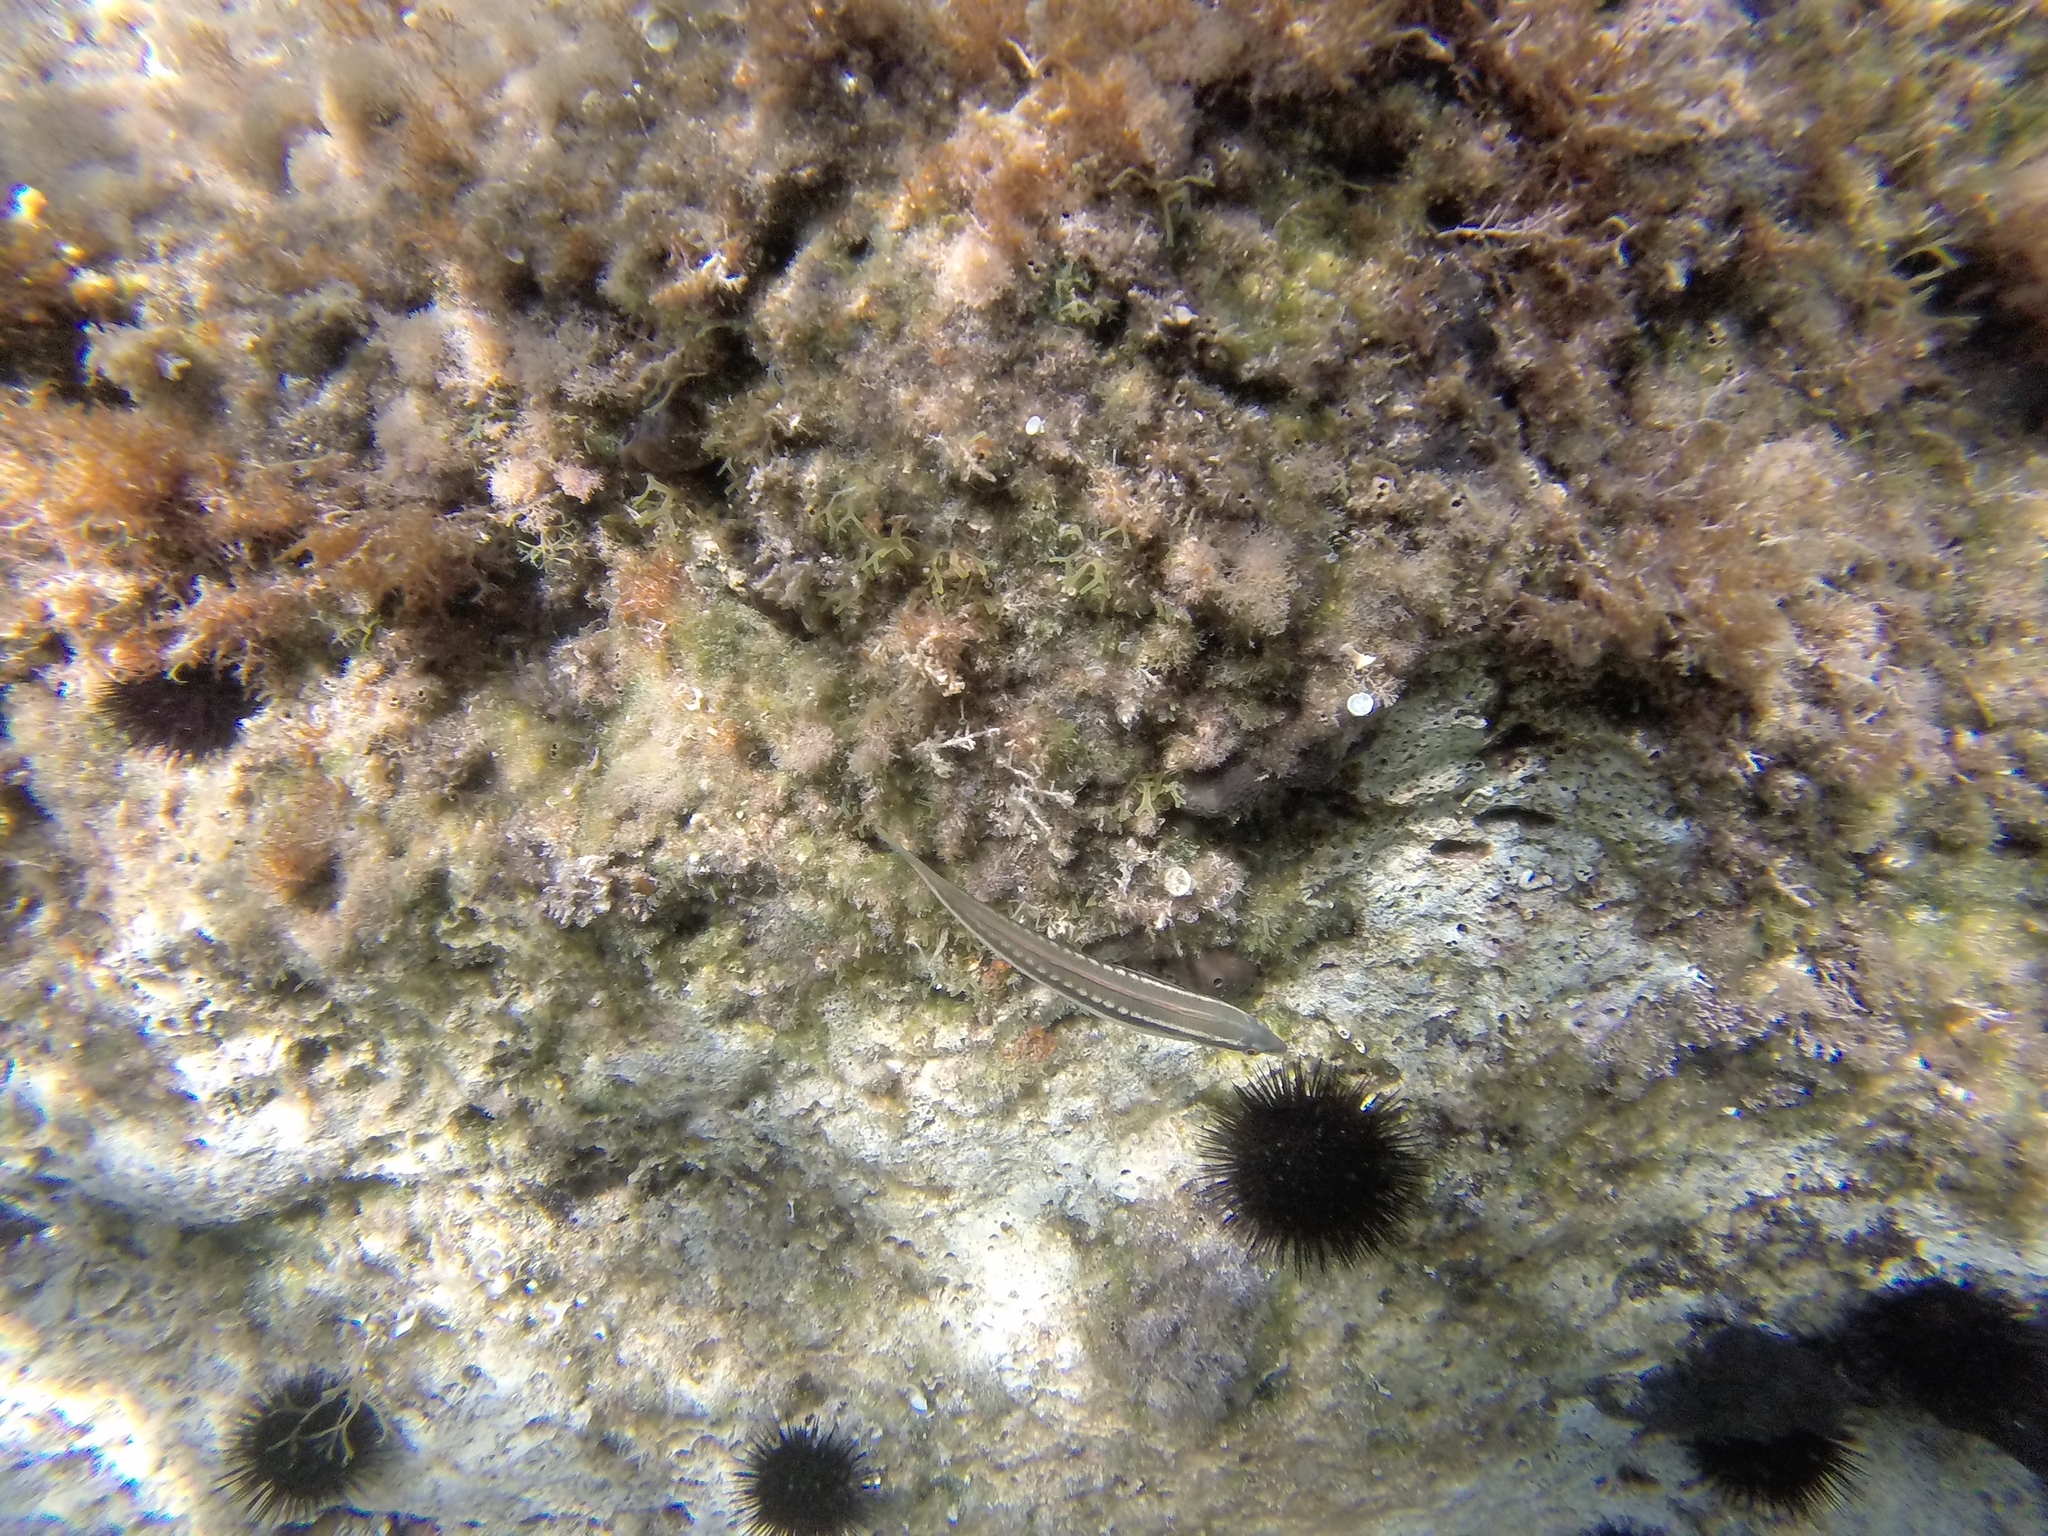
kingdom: Animalia
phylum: Chordata
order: Perciformes
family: Labridae
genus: Coris
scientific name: Coris julis
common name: Rainbow wrasse
